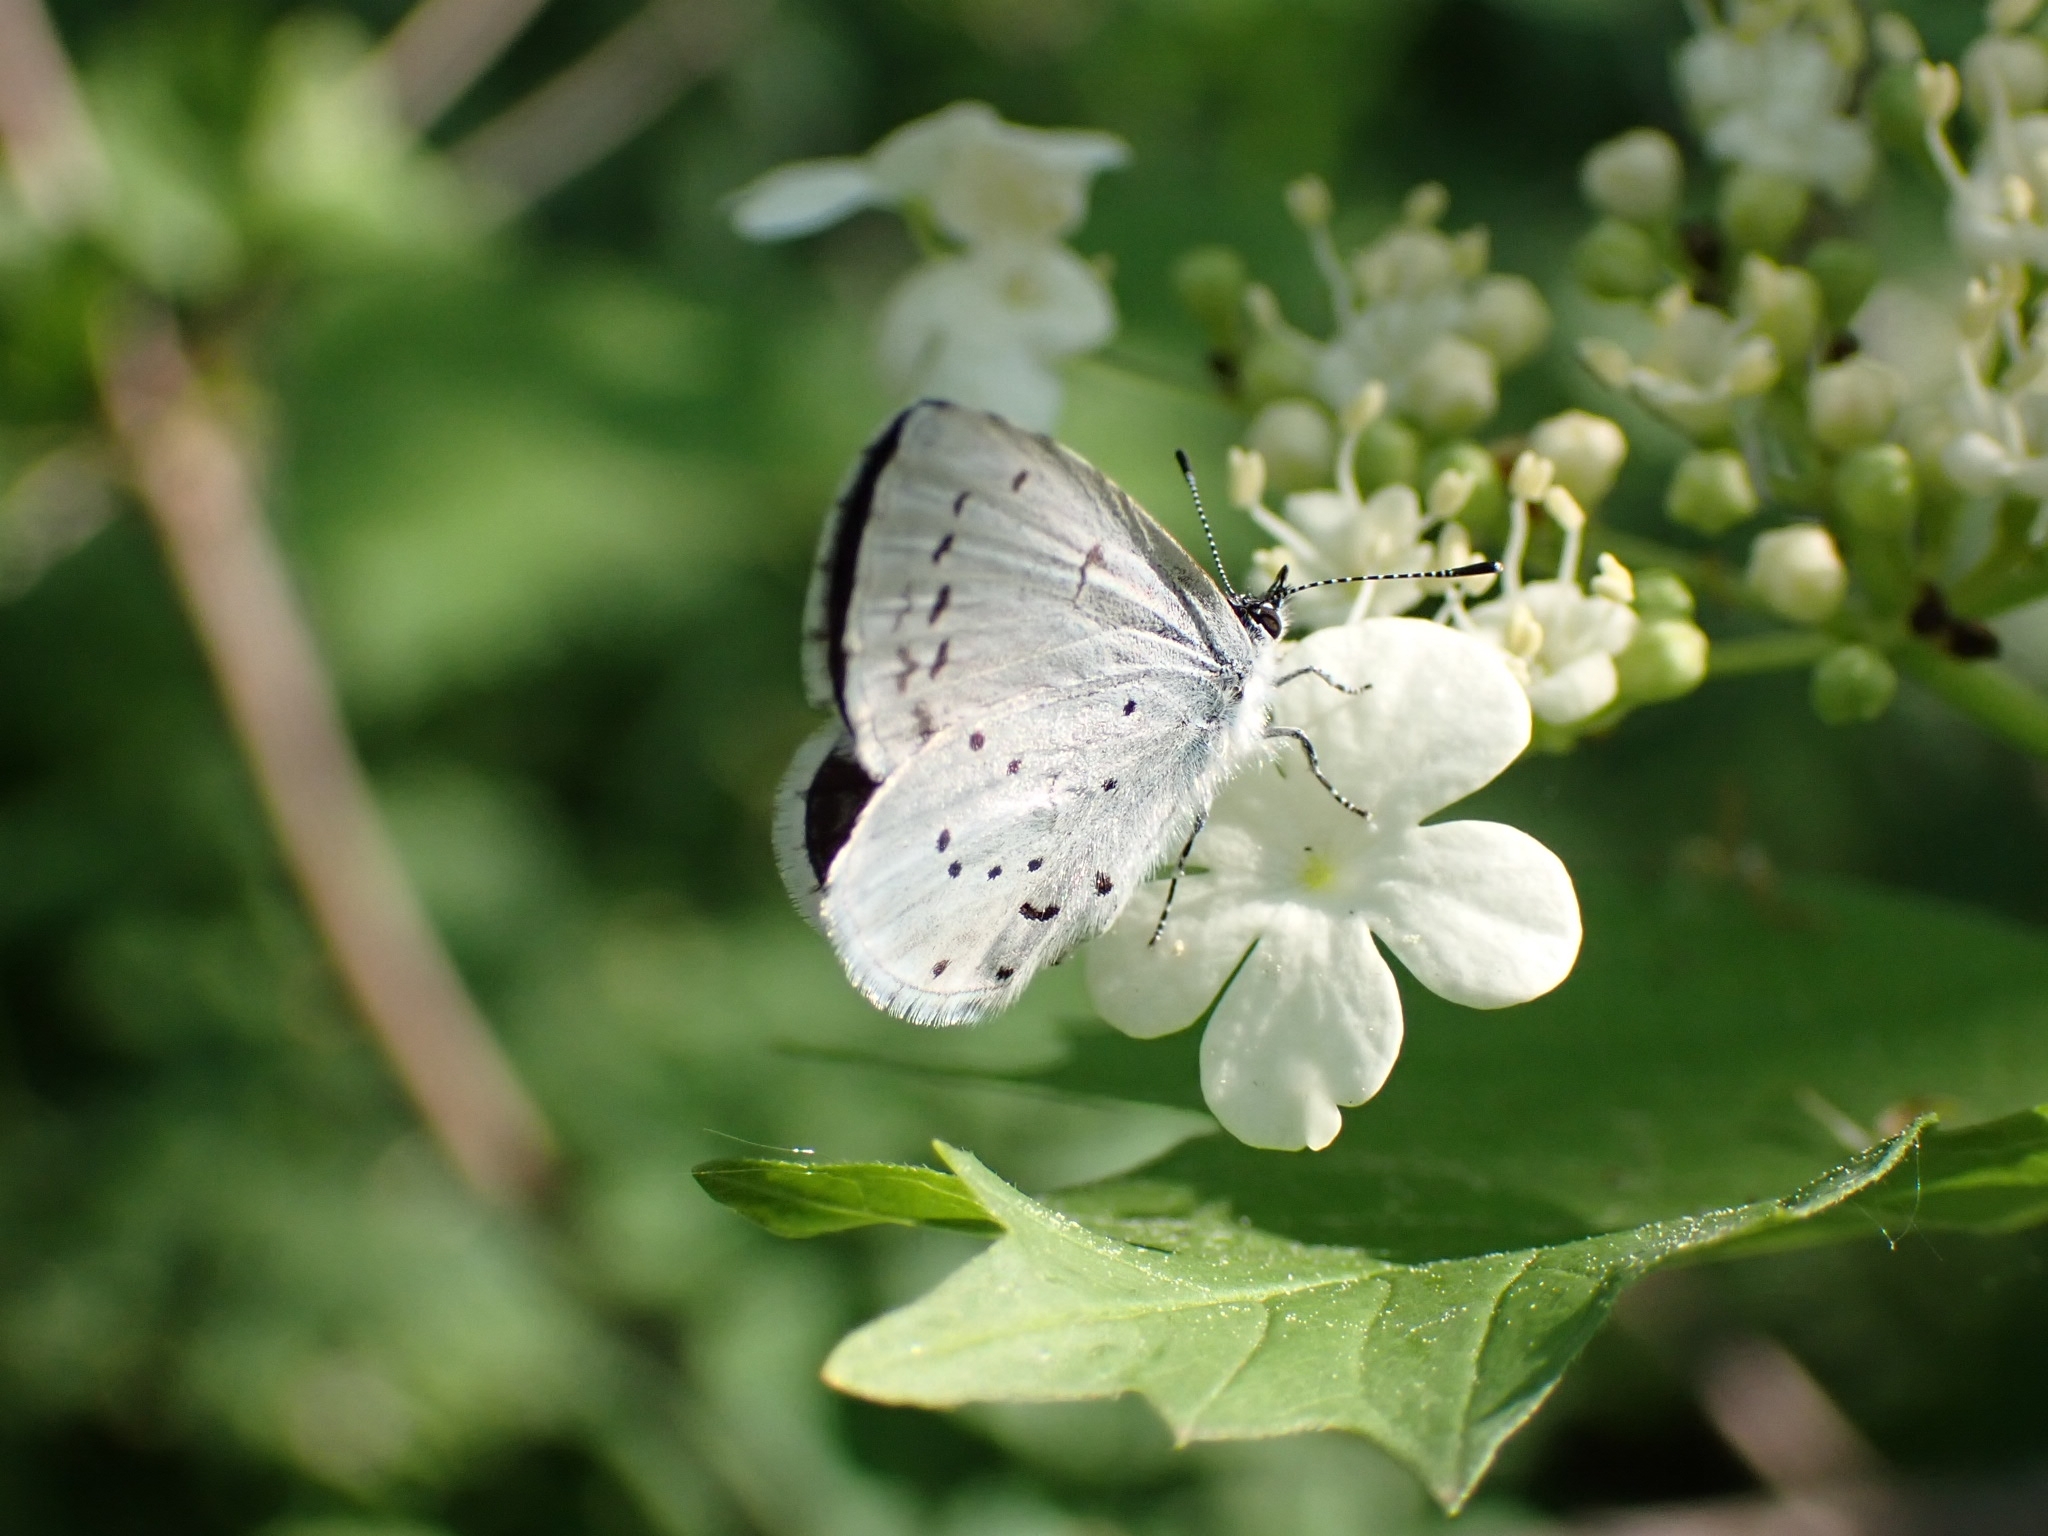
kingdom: Animalia
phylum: Arthropoda
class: Insecta
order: Lepidoptera
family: Lycaenidae
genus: Celastrina
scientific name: Celastrina argiolus
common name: Holly blue
